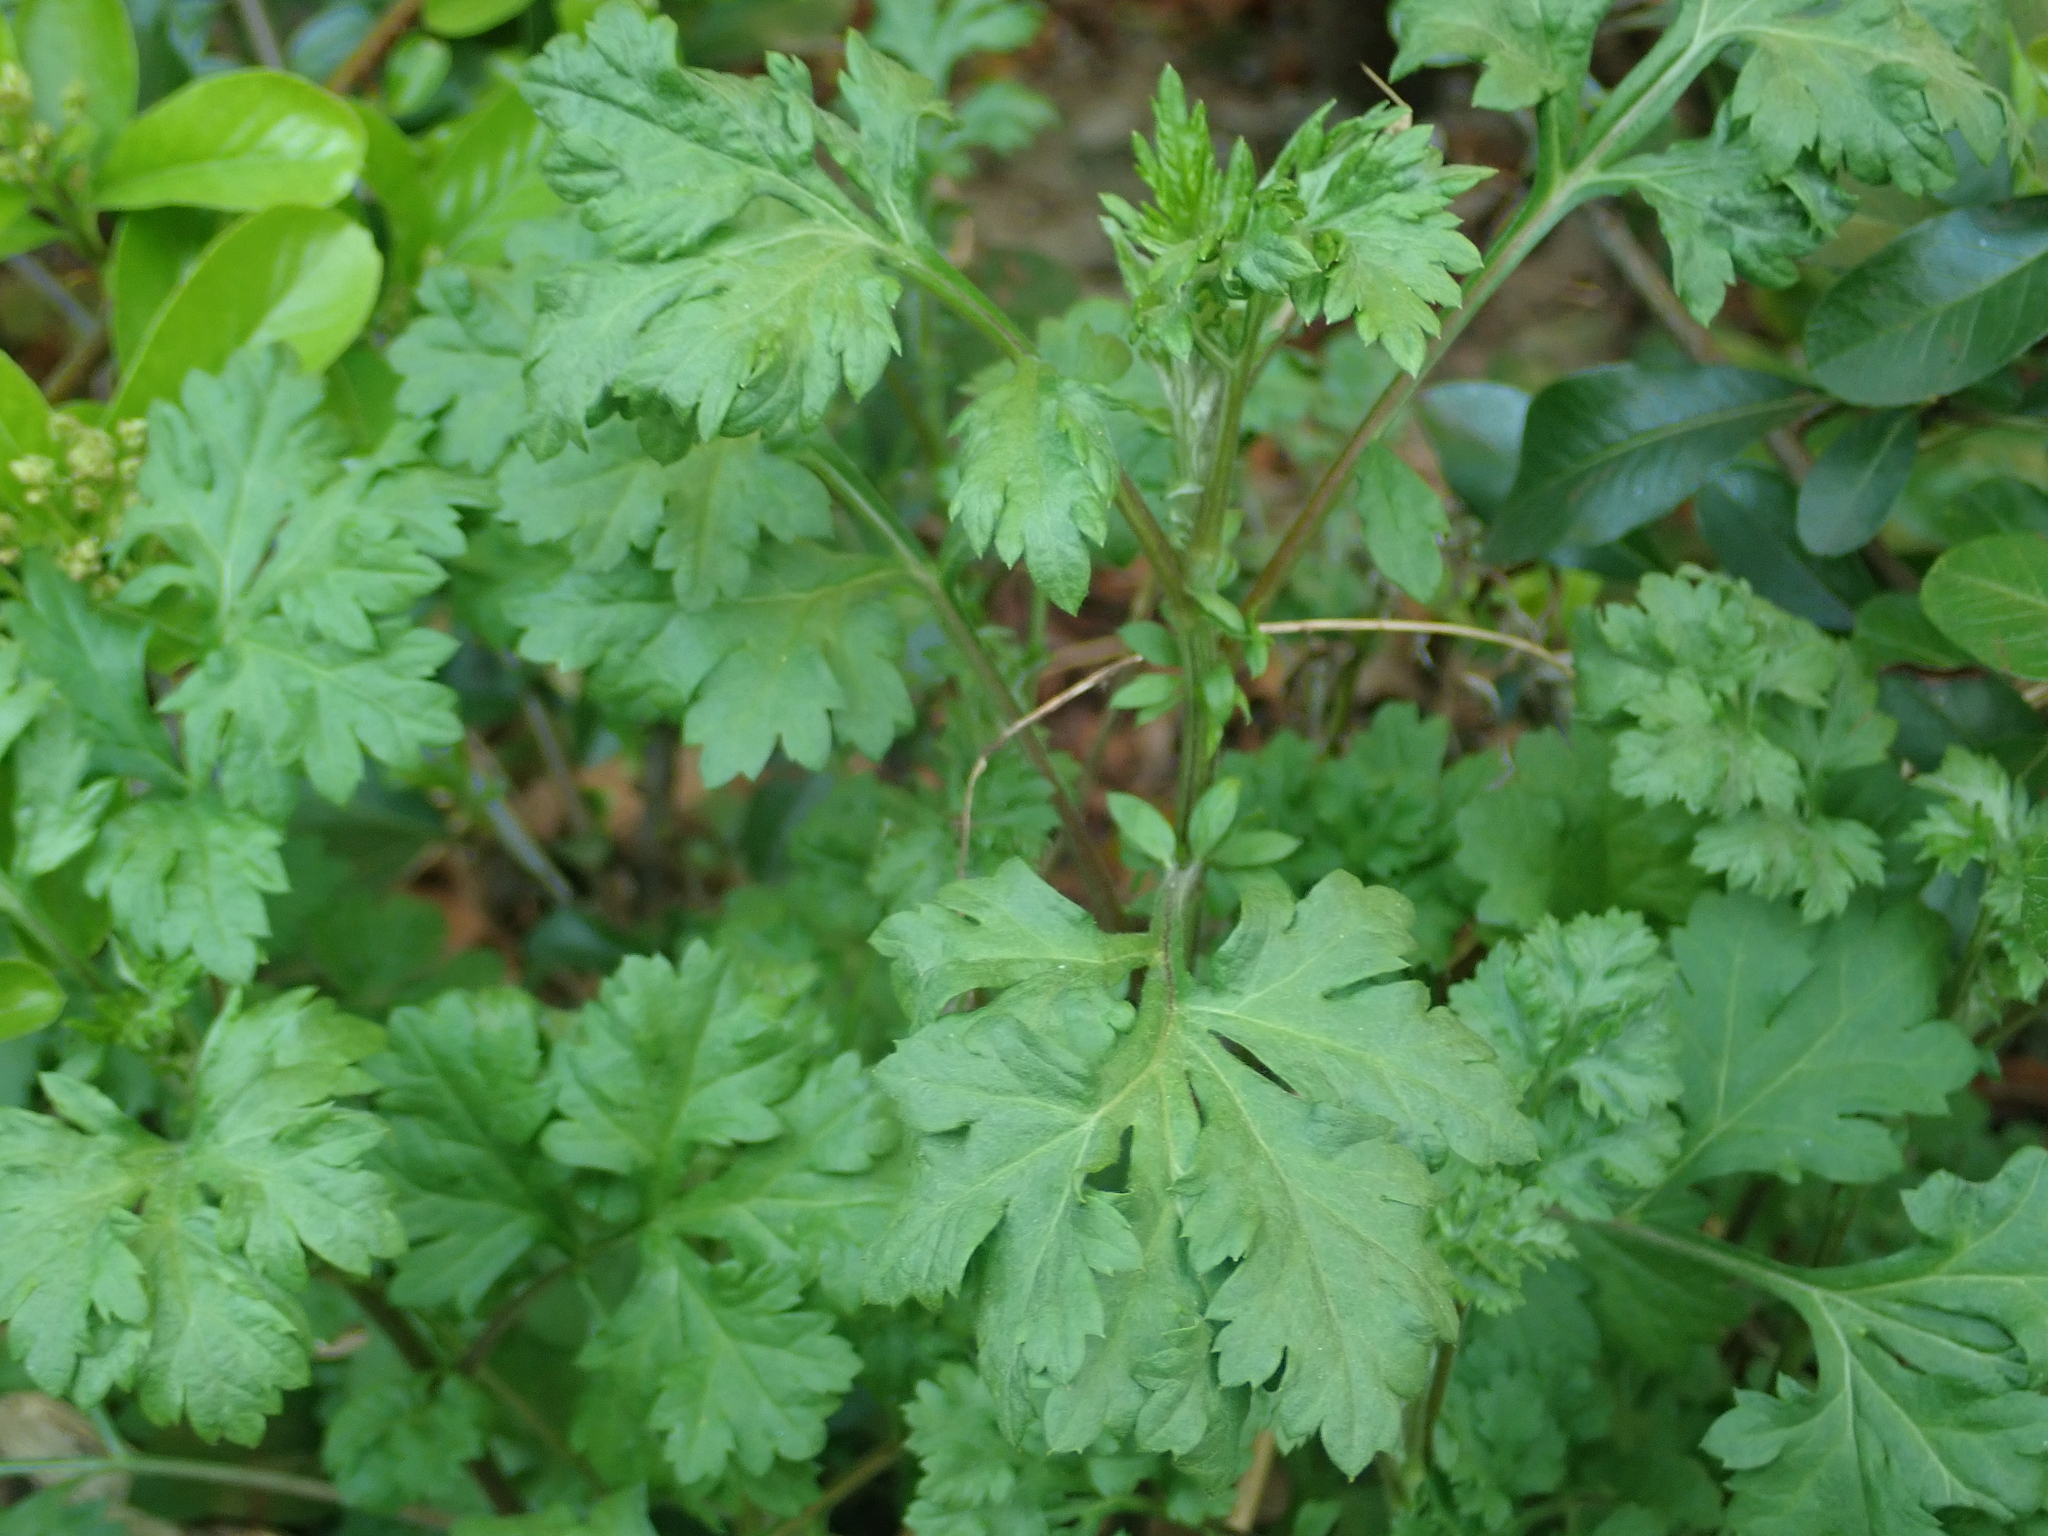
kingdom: Plantae
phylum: Tracheophyta
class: Magnoliopsida
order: Asterales
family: Asteraceae
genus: Artemisia
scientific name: Artemisia vulgaris
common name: Mugwort
